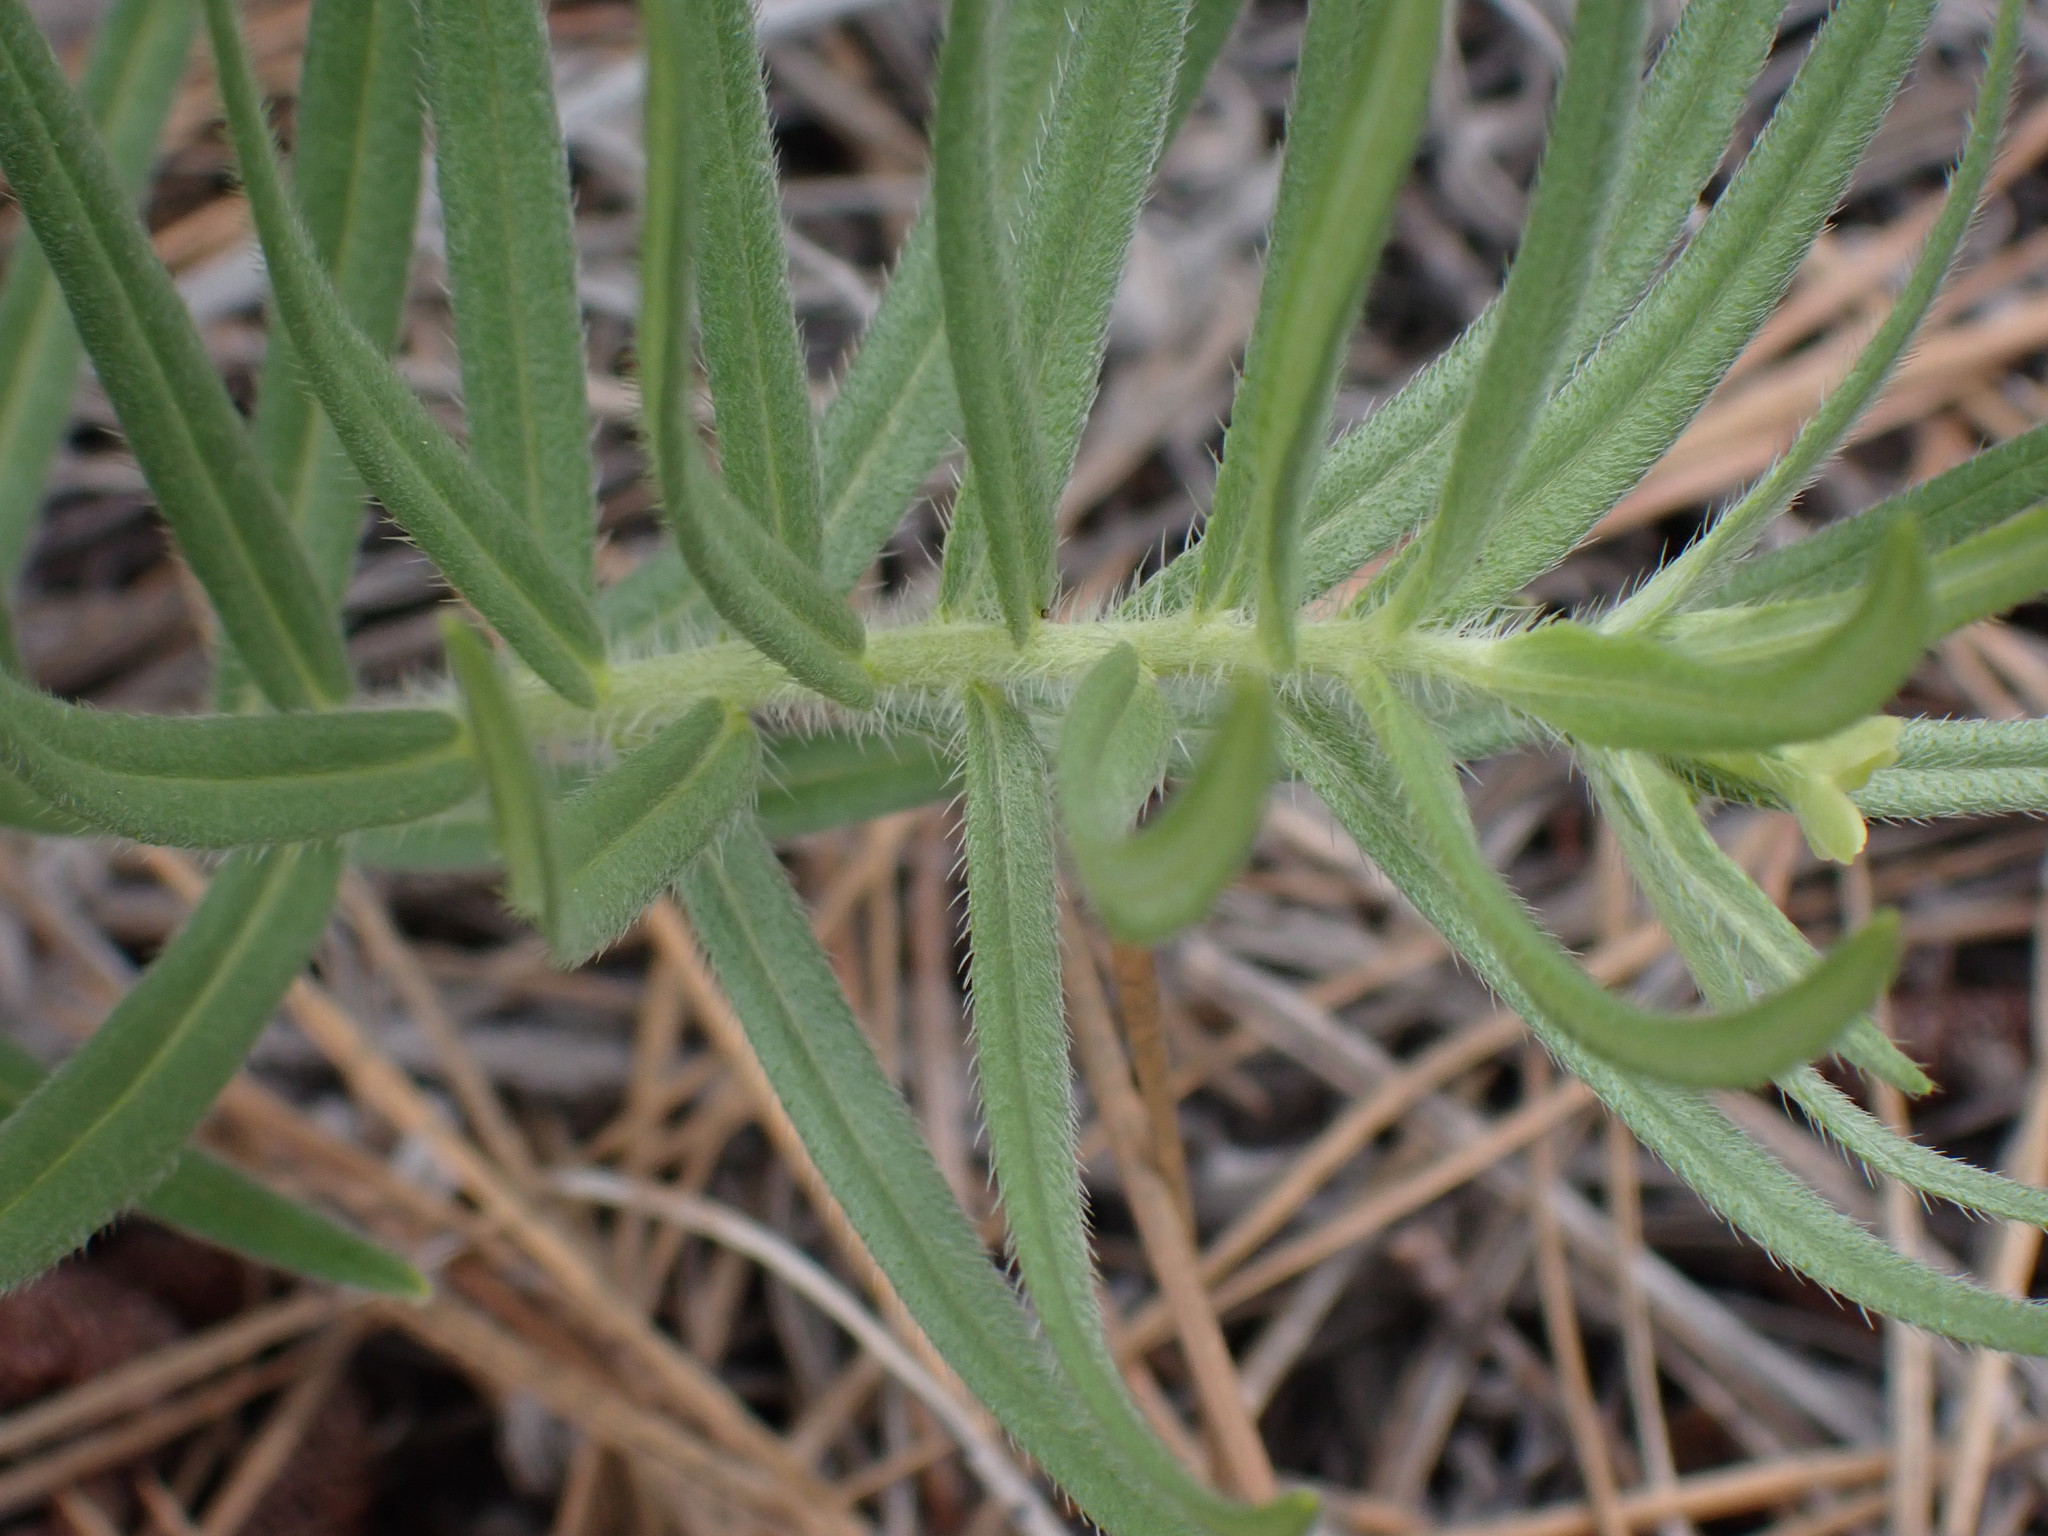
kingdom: Plantae
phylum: Tracheophyta
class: Magnoliopsida
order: Boraginales
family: Boraginaceae
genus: Lithospermum
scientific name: Lithospermum ruderale
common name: Western gromwell
